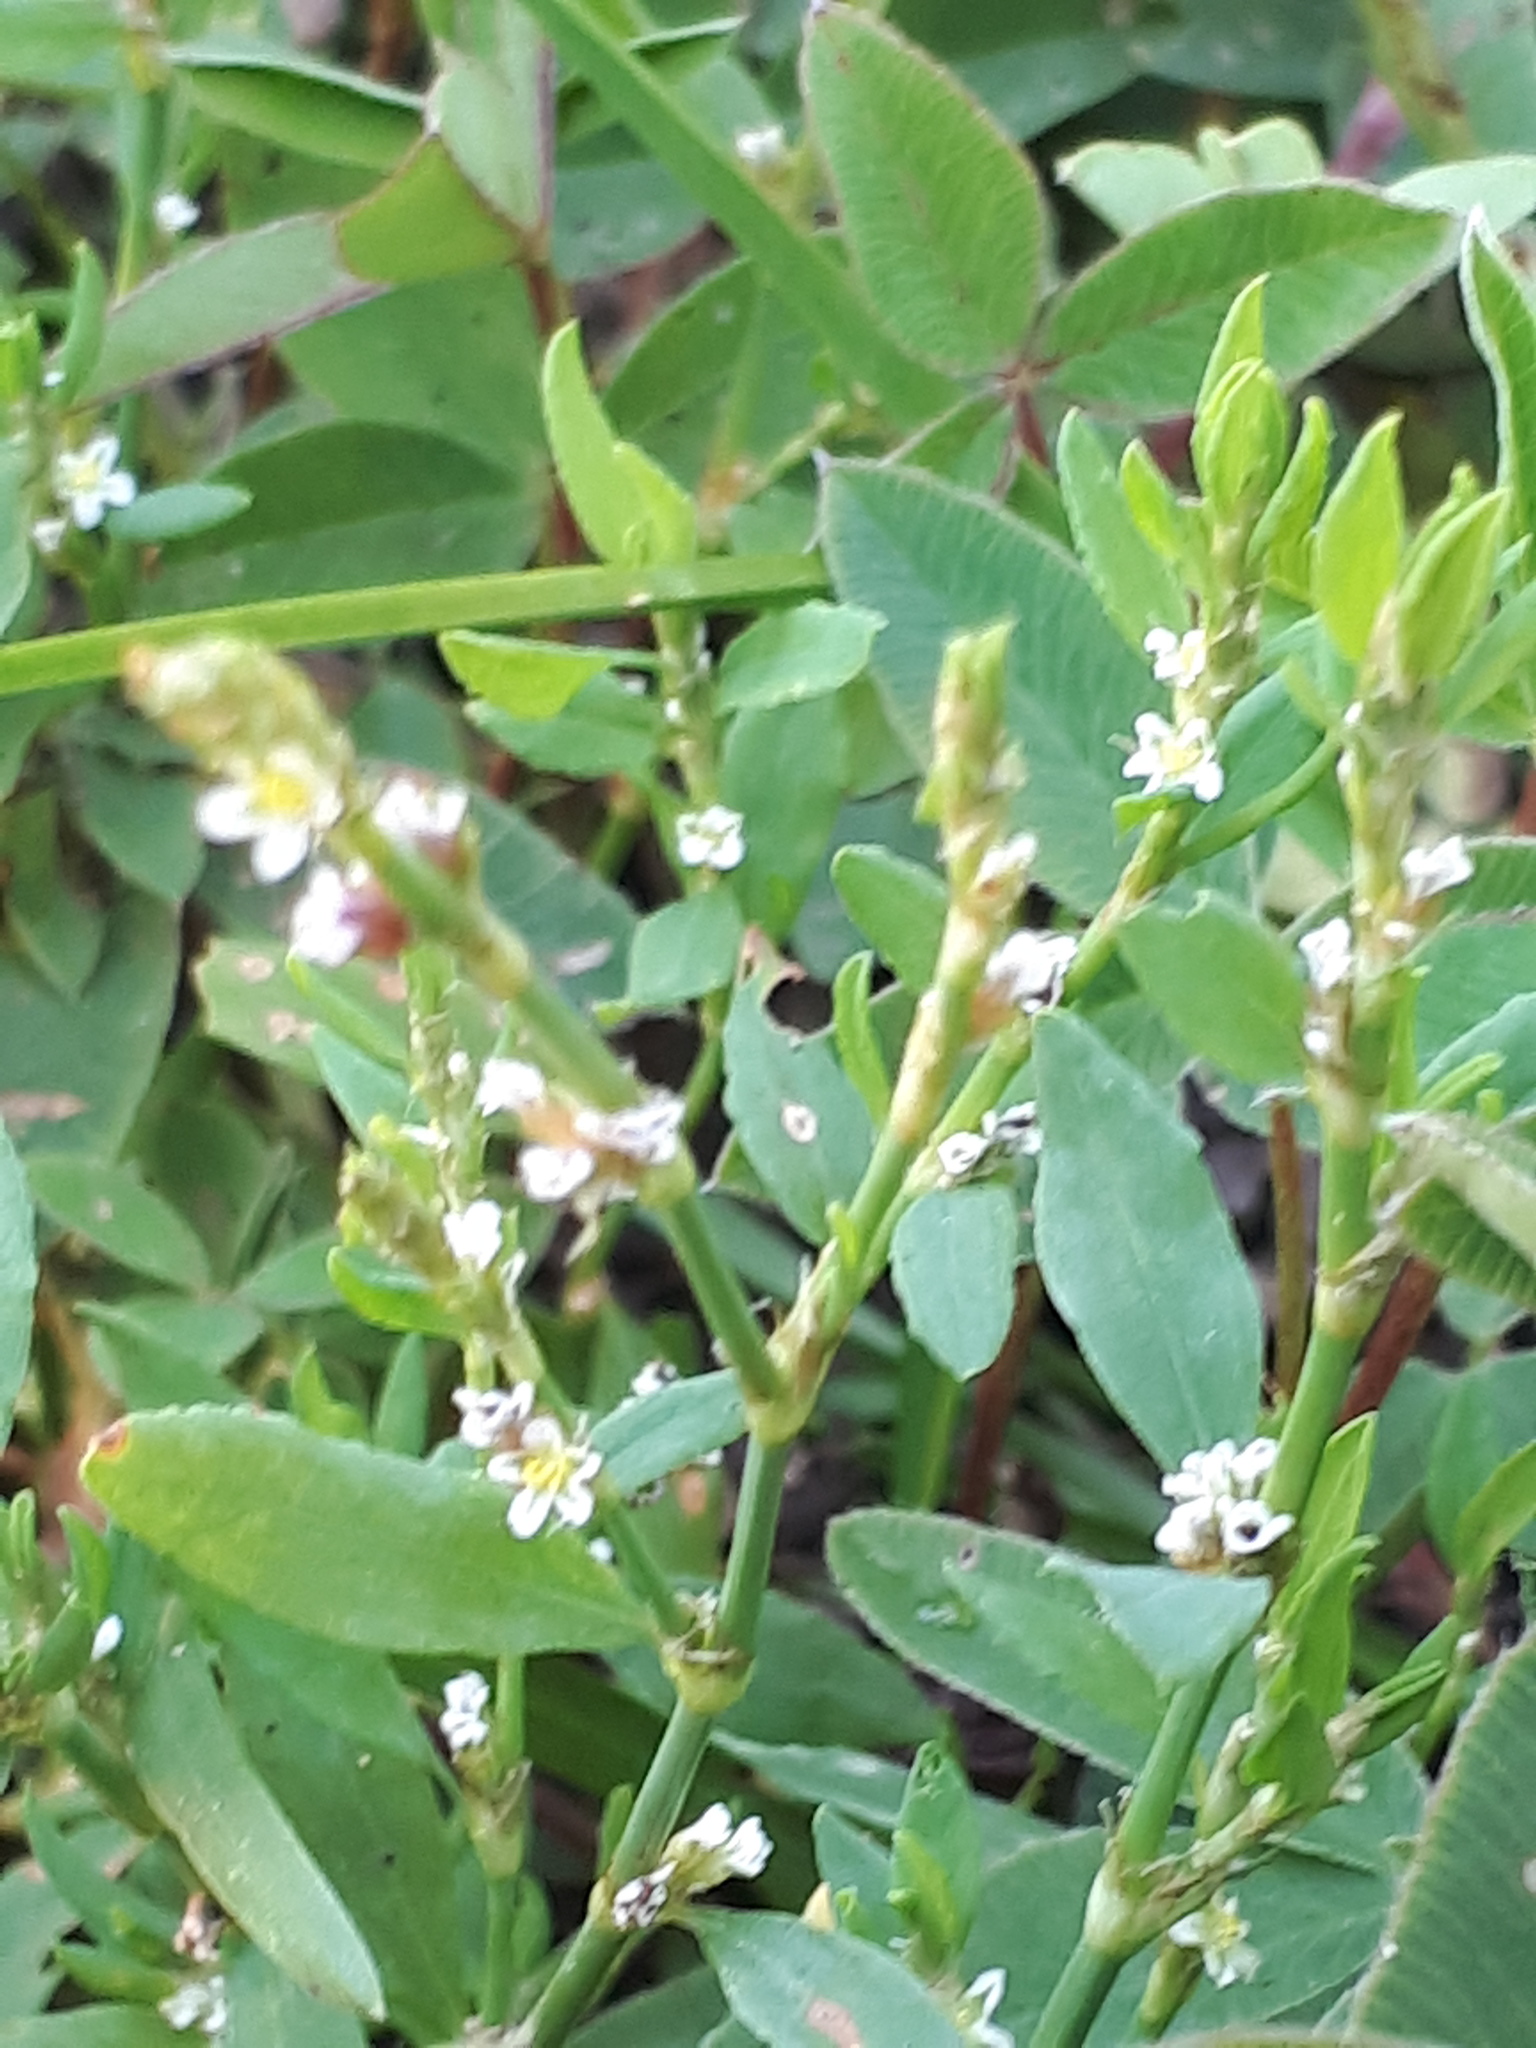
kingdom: Plantae
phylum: Tracheophyta
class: Magnoliopsida
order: Caryophyllales
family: Polygonaceae
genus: Polygonum
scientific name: Polygonum aviculare
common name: Prostrate knotweed
